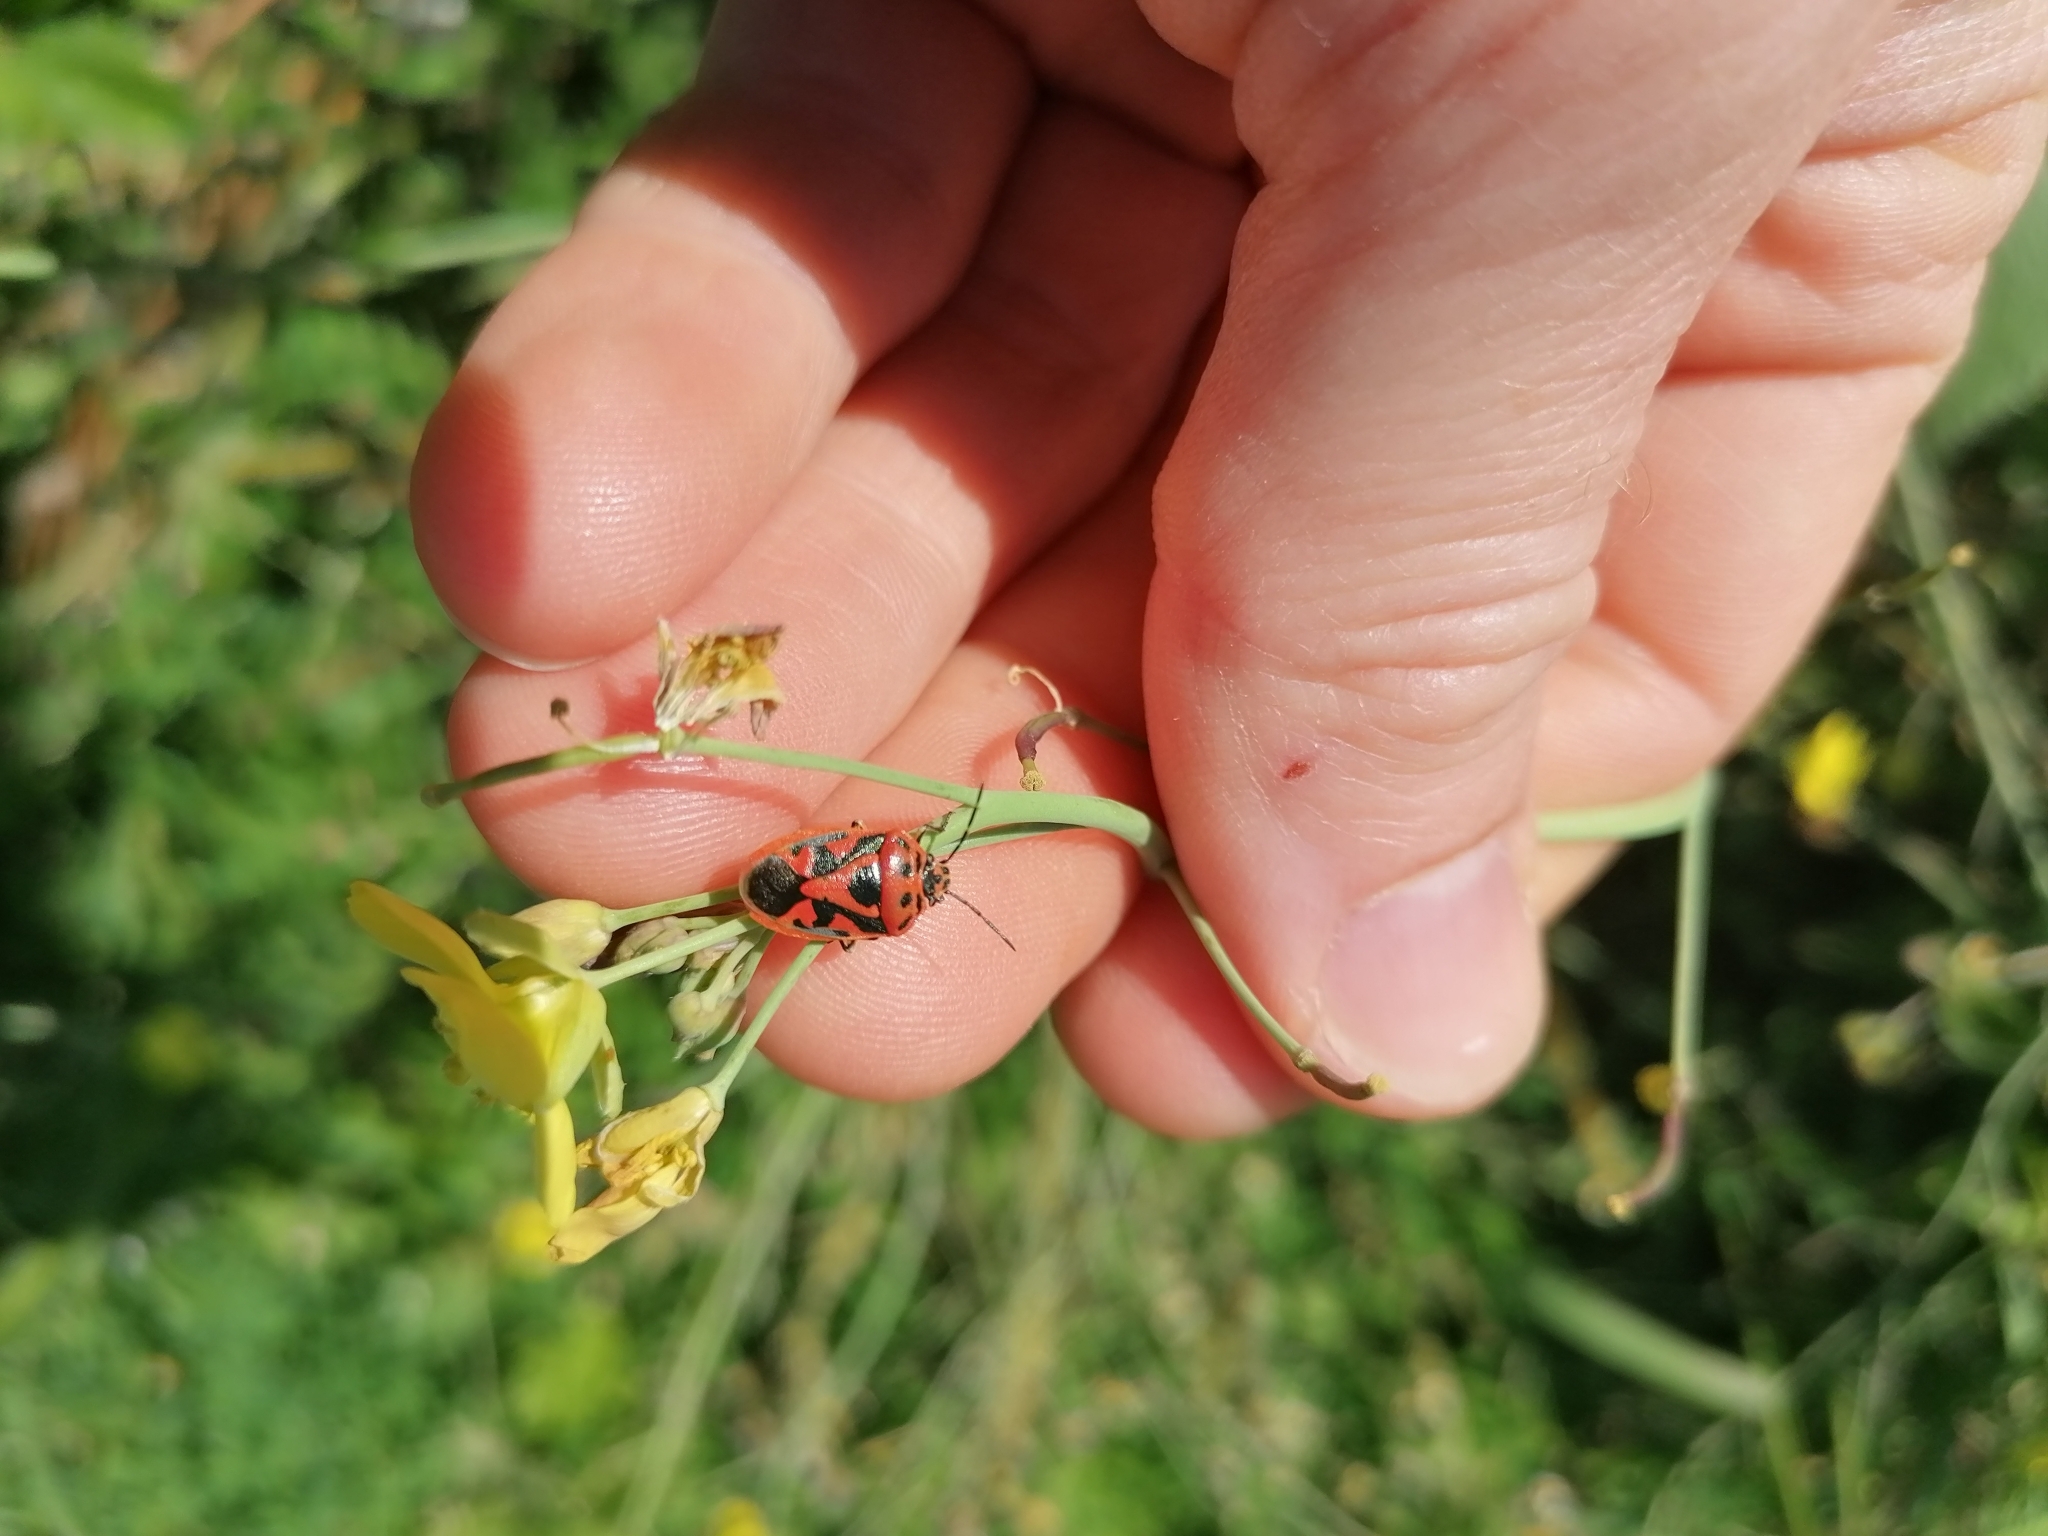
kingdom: Animalia
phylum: Arthropoda
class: Insecta
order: Hemiptera
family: Pentatomidae
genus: Eurydema
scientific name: Eurydema ornata
